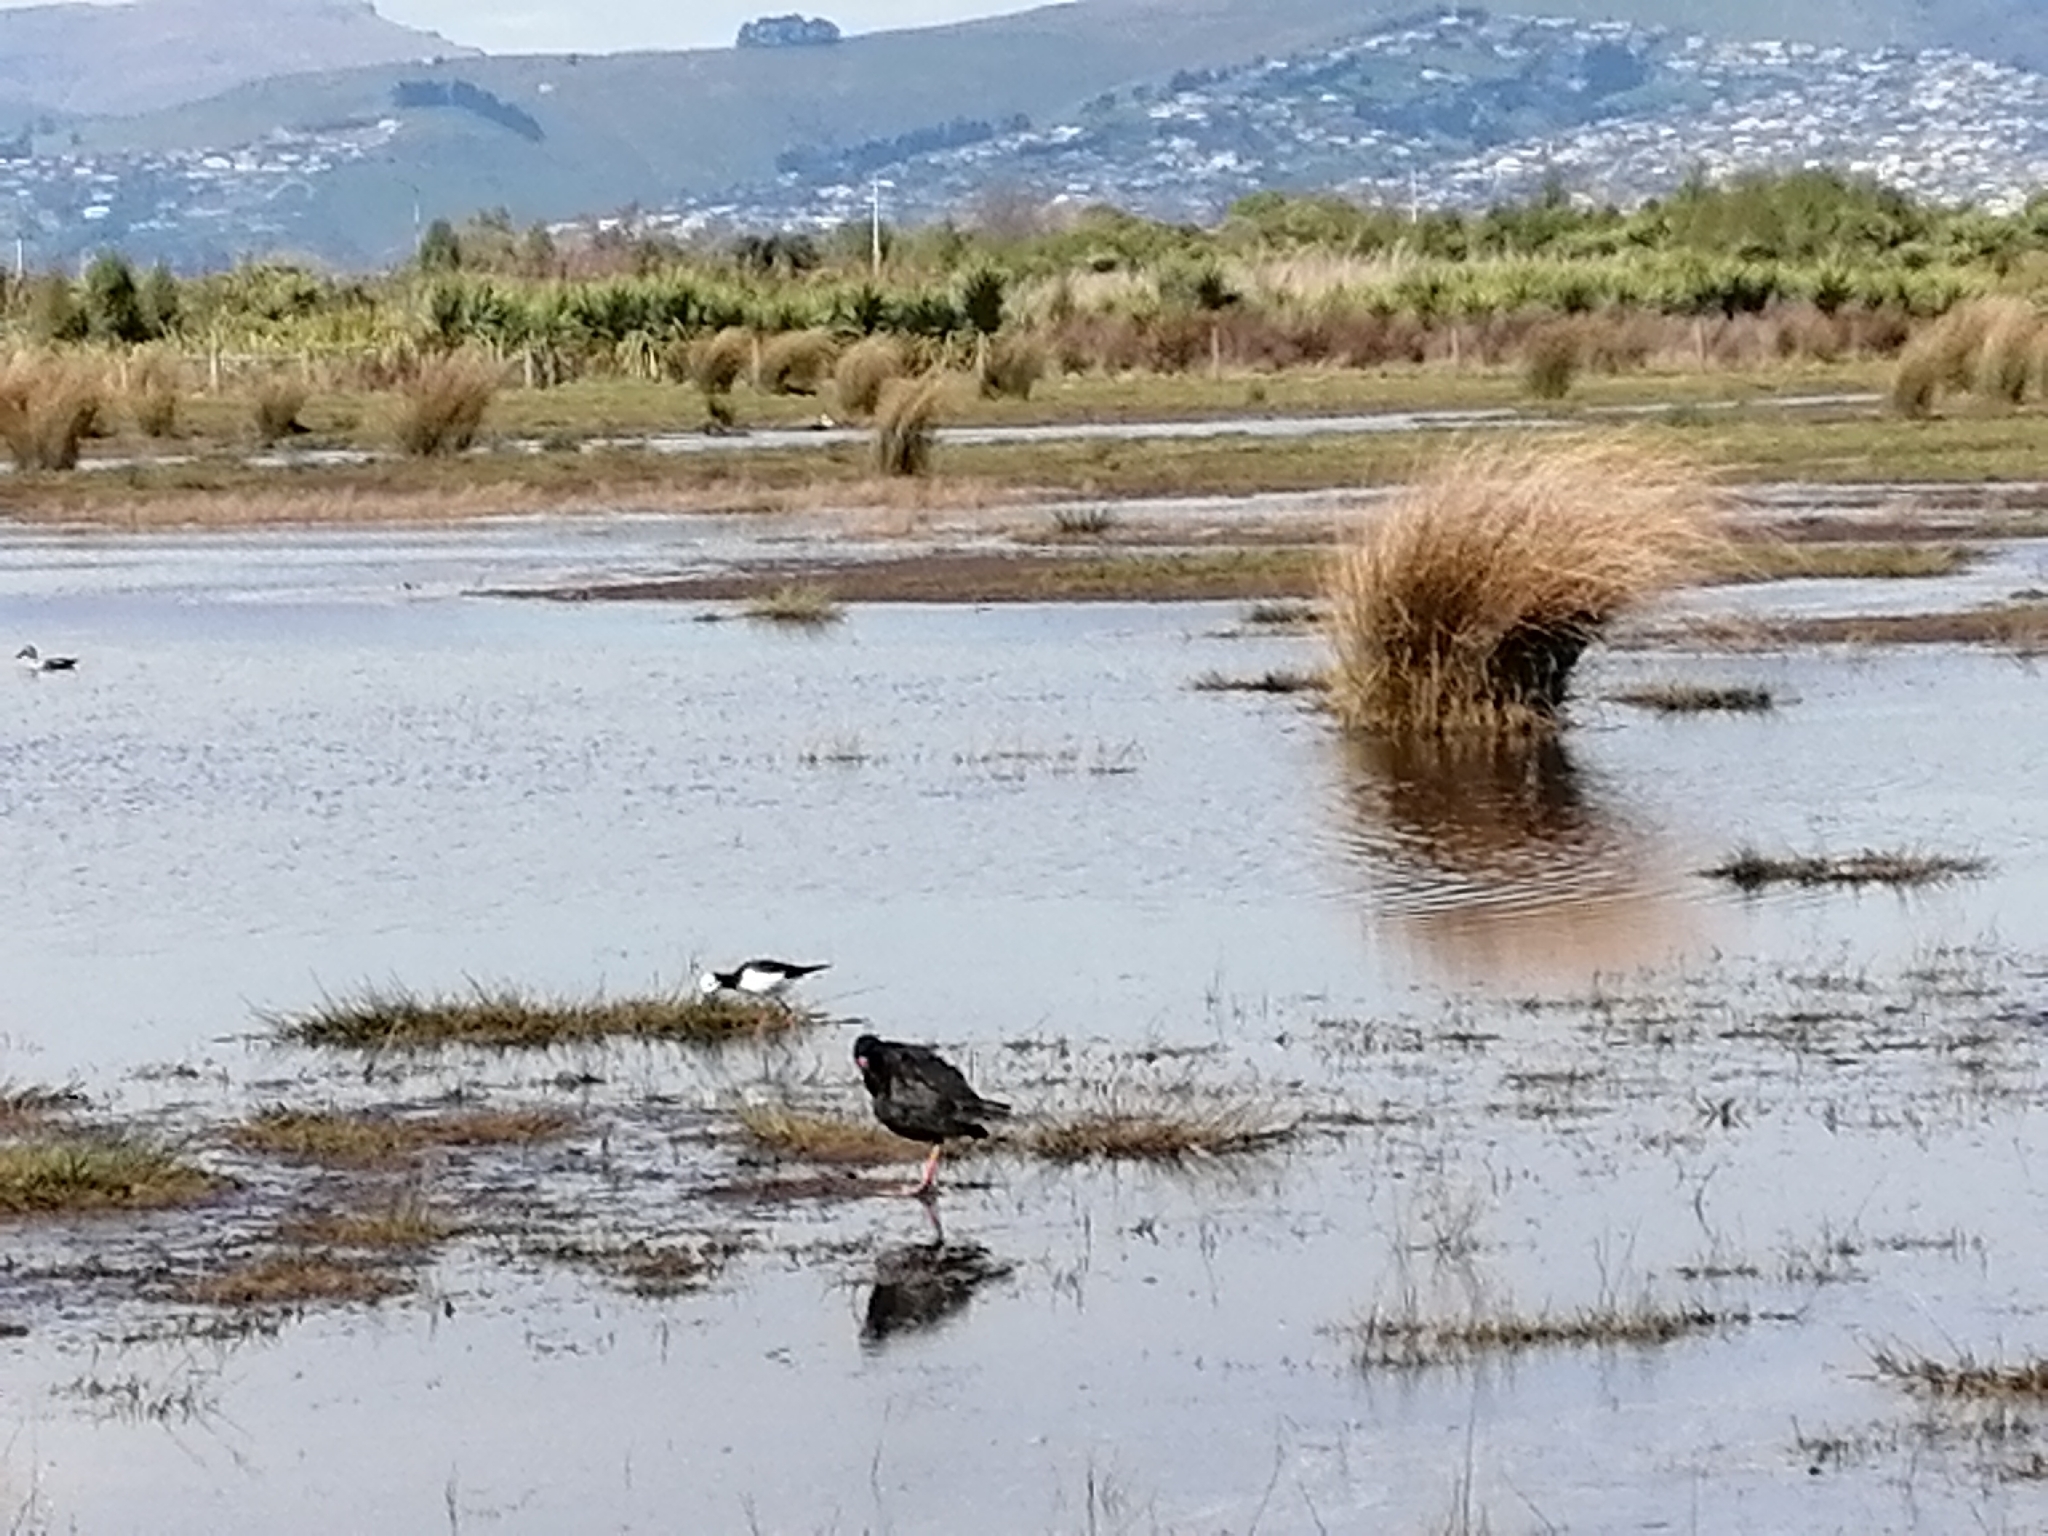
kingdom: Animalia
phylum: Chordata
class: Aves
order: Charadriiformes
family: Recurvirostridae
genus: Himantopus
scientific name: Himantopus leucocephalus
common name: White-headed stilt
